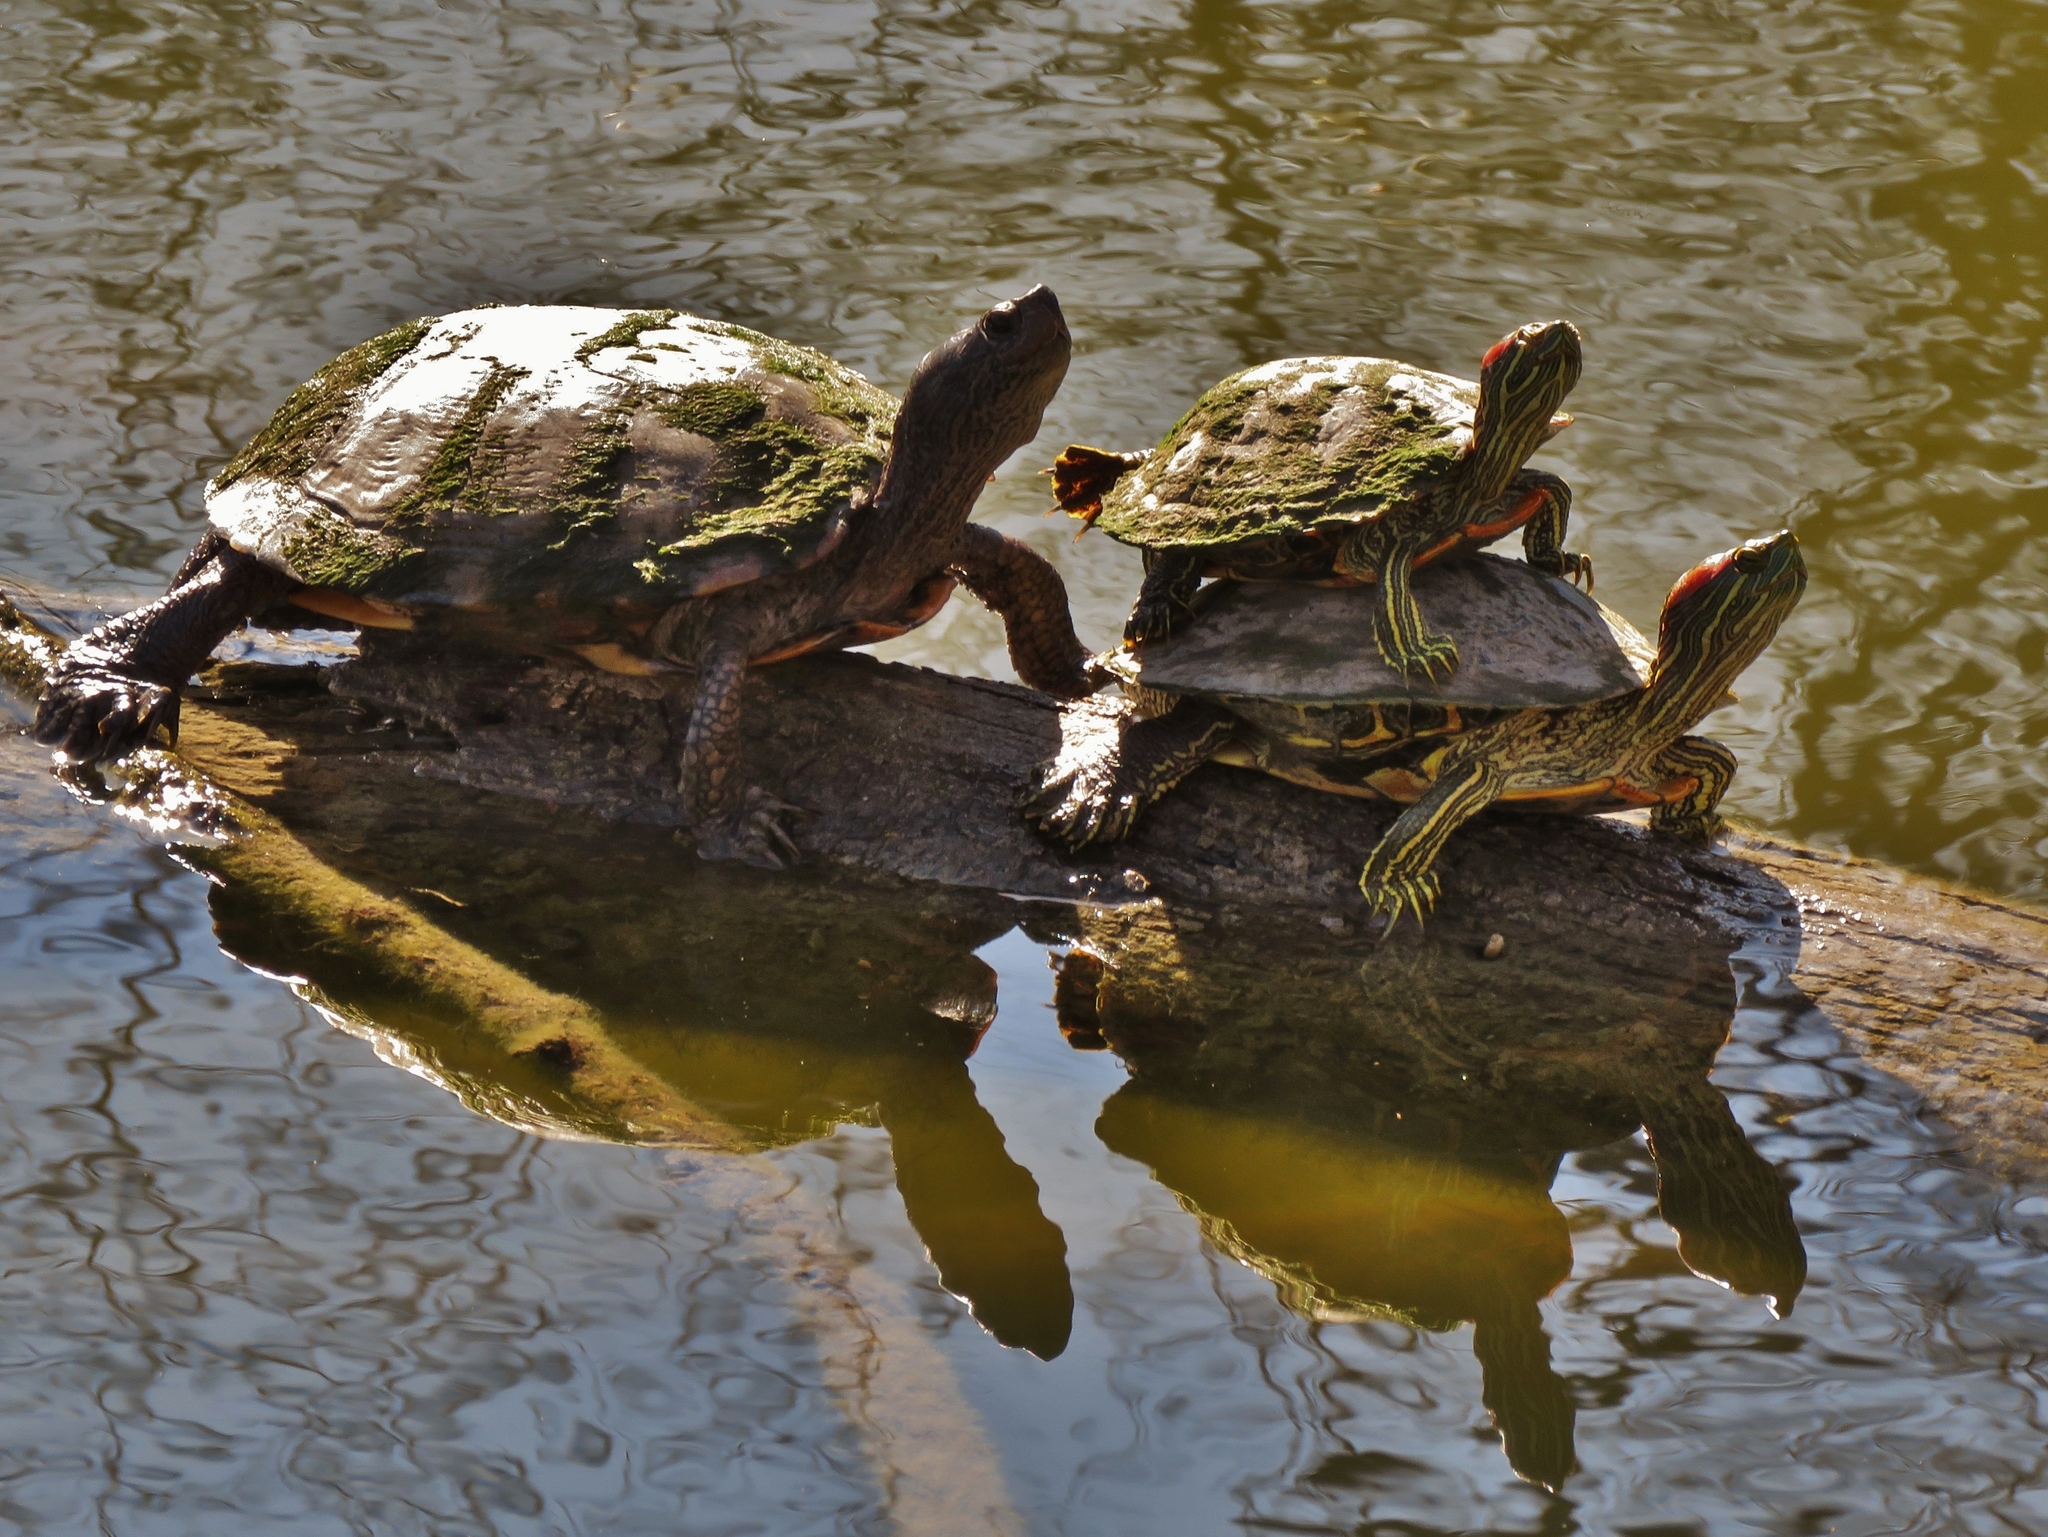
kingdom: Animalia
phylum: Chordata
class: Testudines
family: Emydidae
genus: Trachemys
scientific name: Trachemys scripta
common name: Slider
